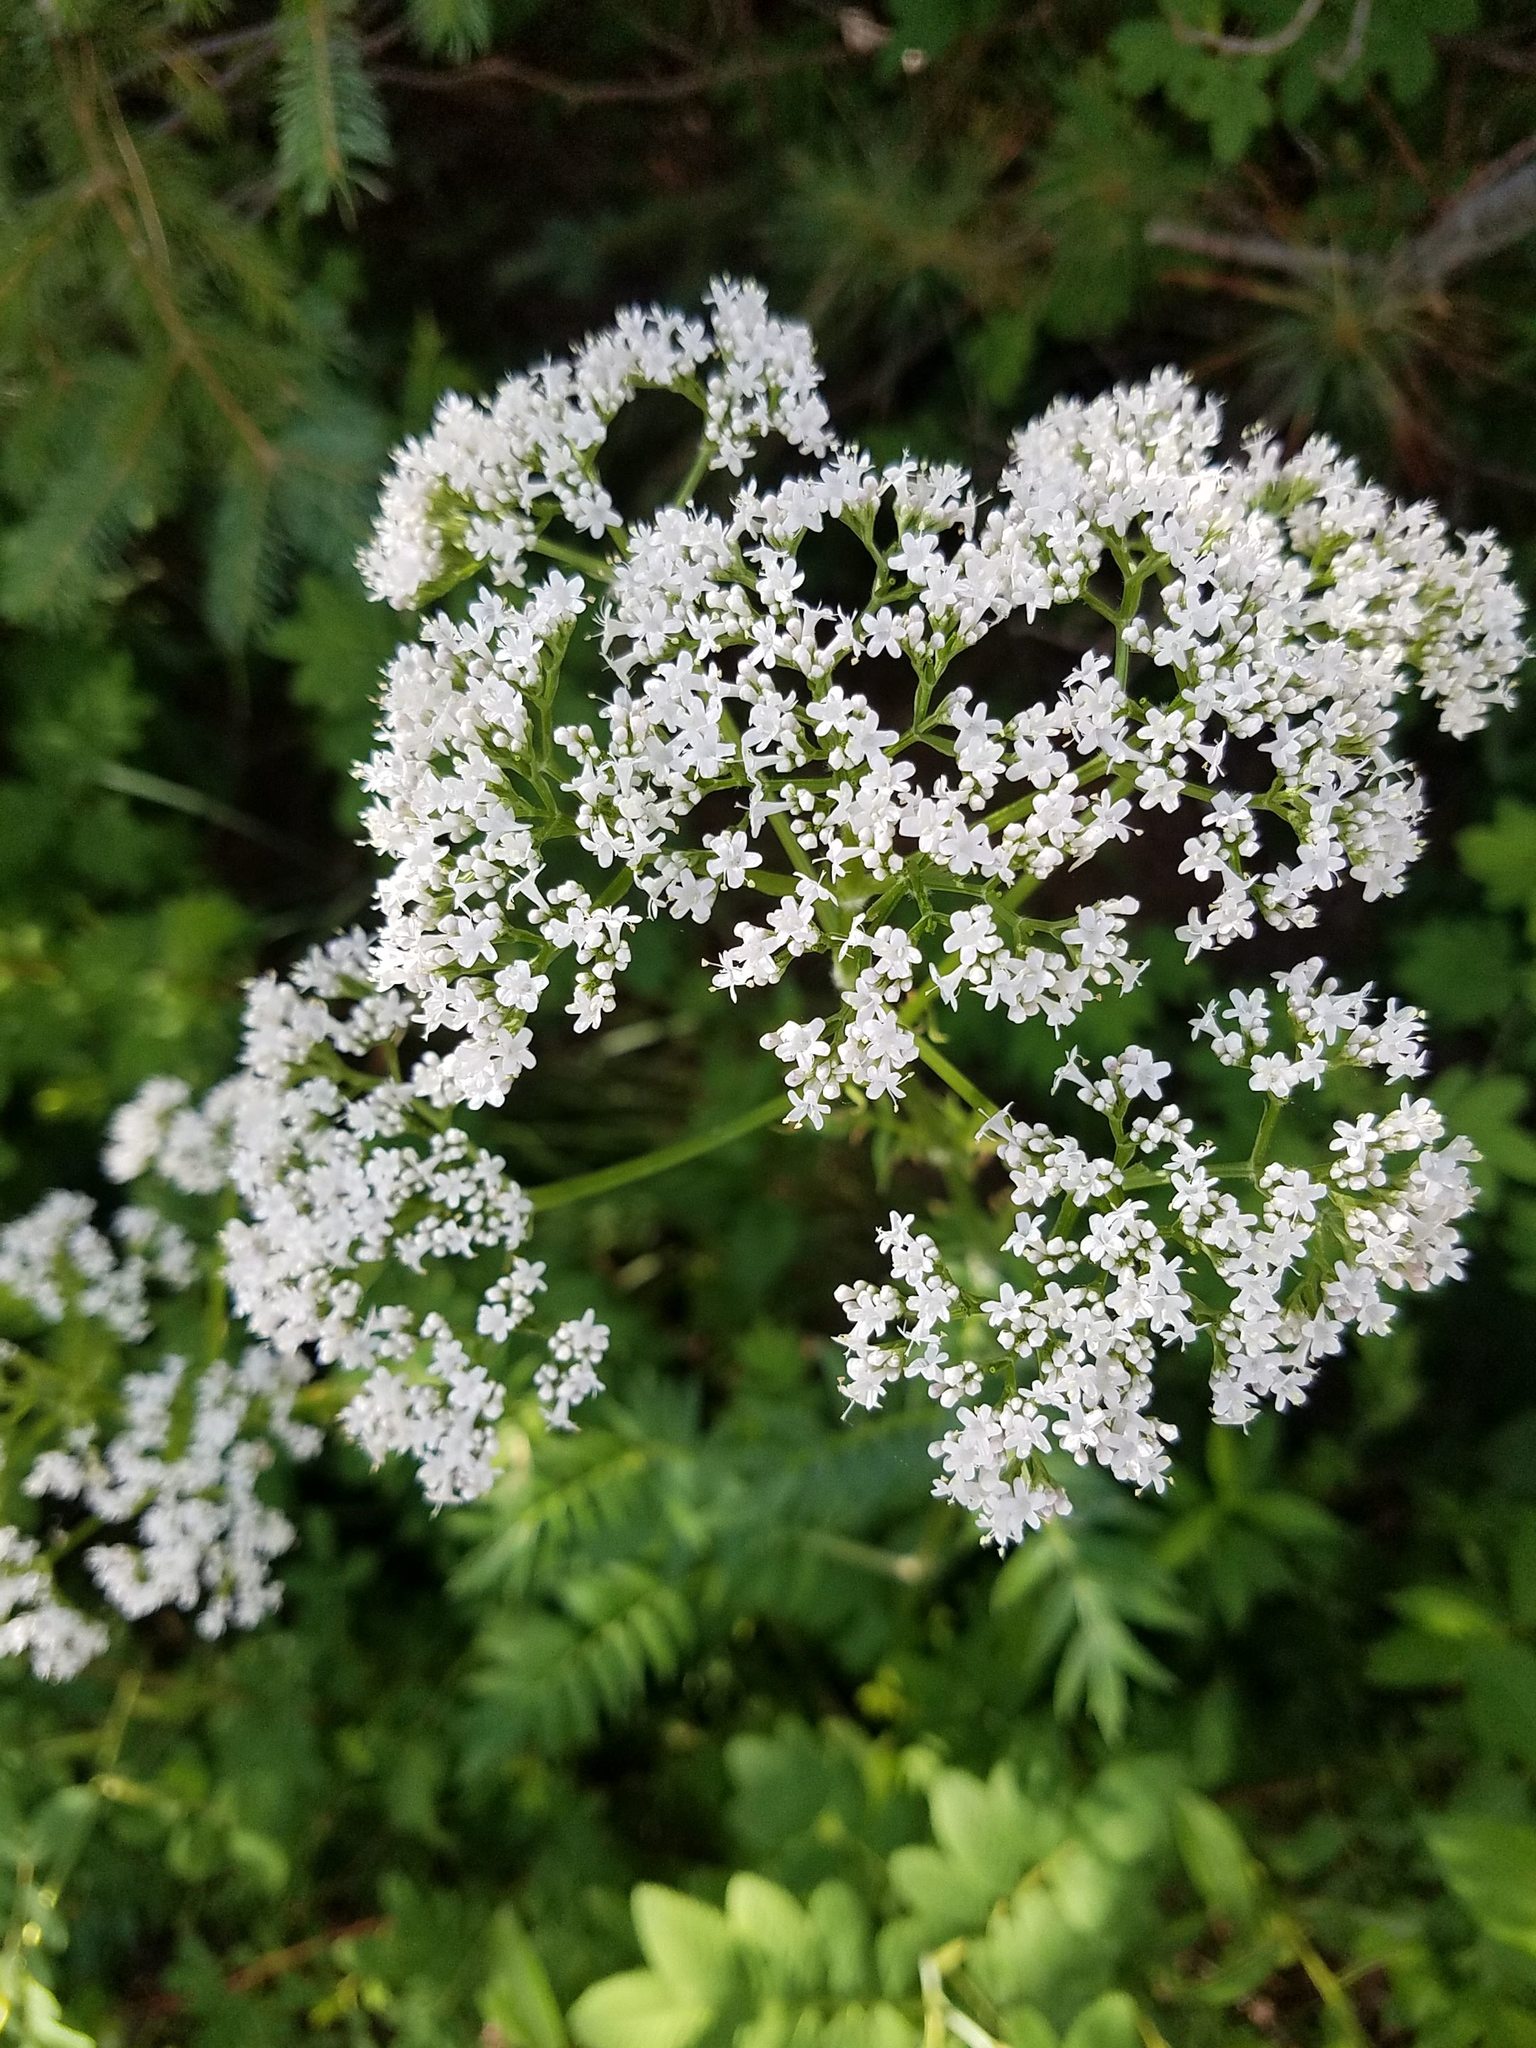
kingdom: Plantae
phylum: Tracheophyta
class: Magnoliopsida
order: Dipsacales
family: Caprifoliaceae
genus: Valeriana
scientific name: Valeriana officinalis
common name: Common valerian
